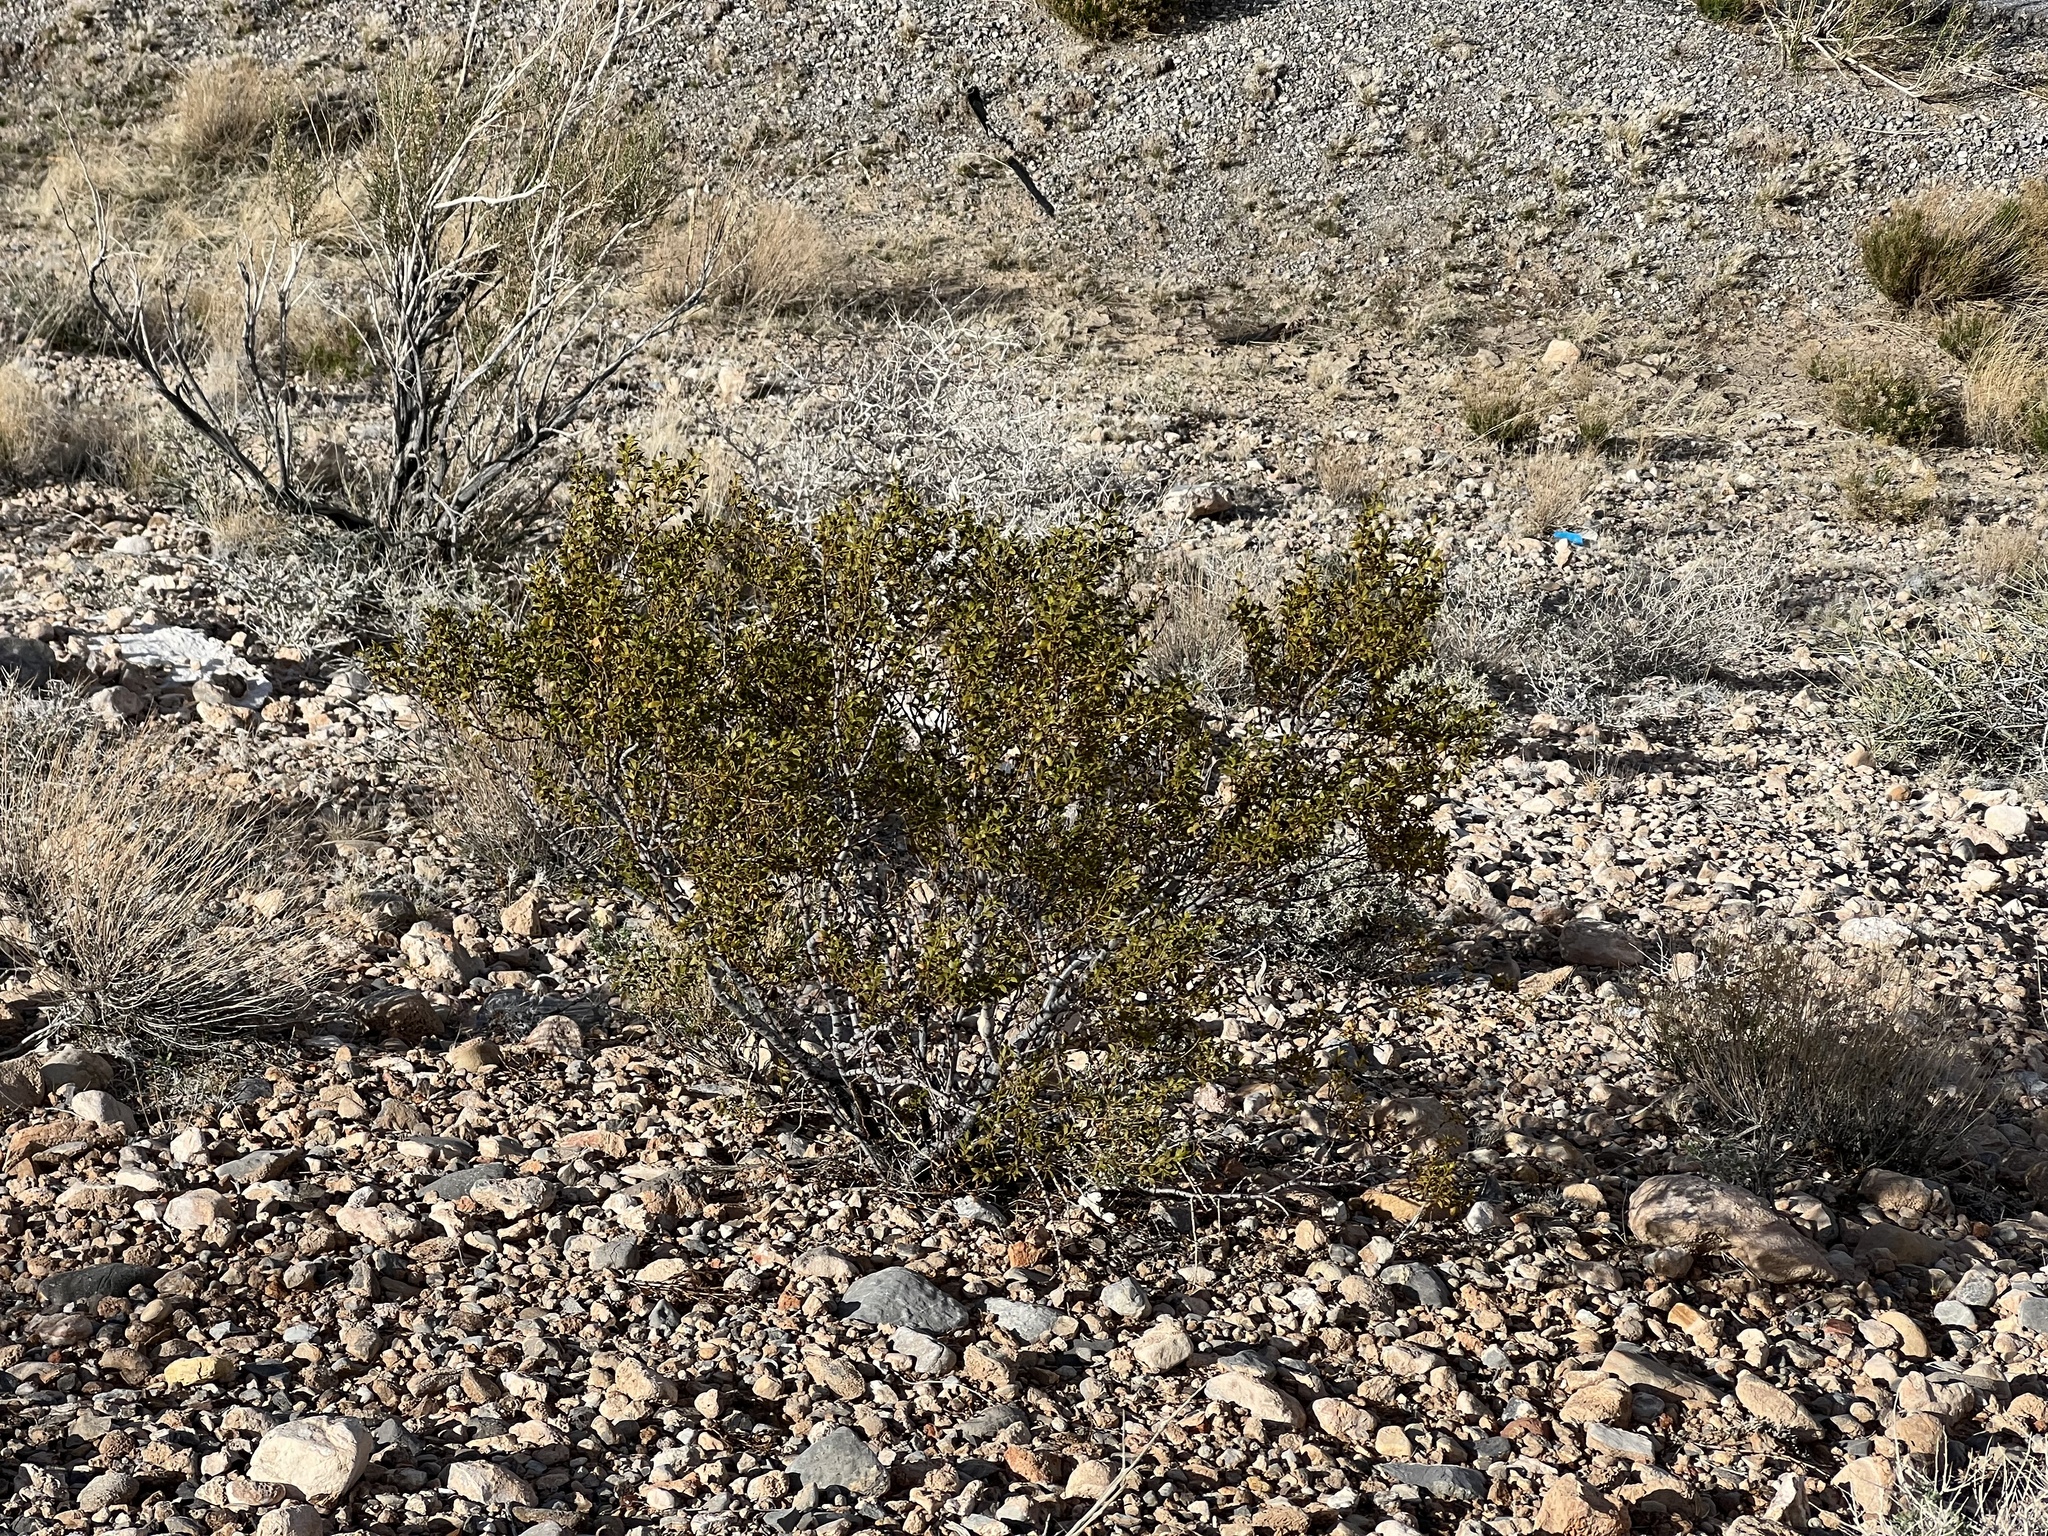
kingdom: Plantae
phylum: Tracheophyta
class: Magnoliopsida
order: Zygophyllales
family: Zygophyllaceae
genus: Larrea
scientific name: Larrea tridentata
